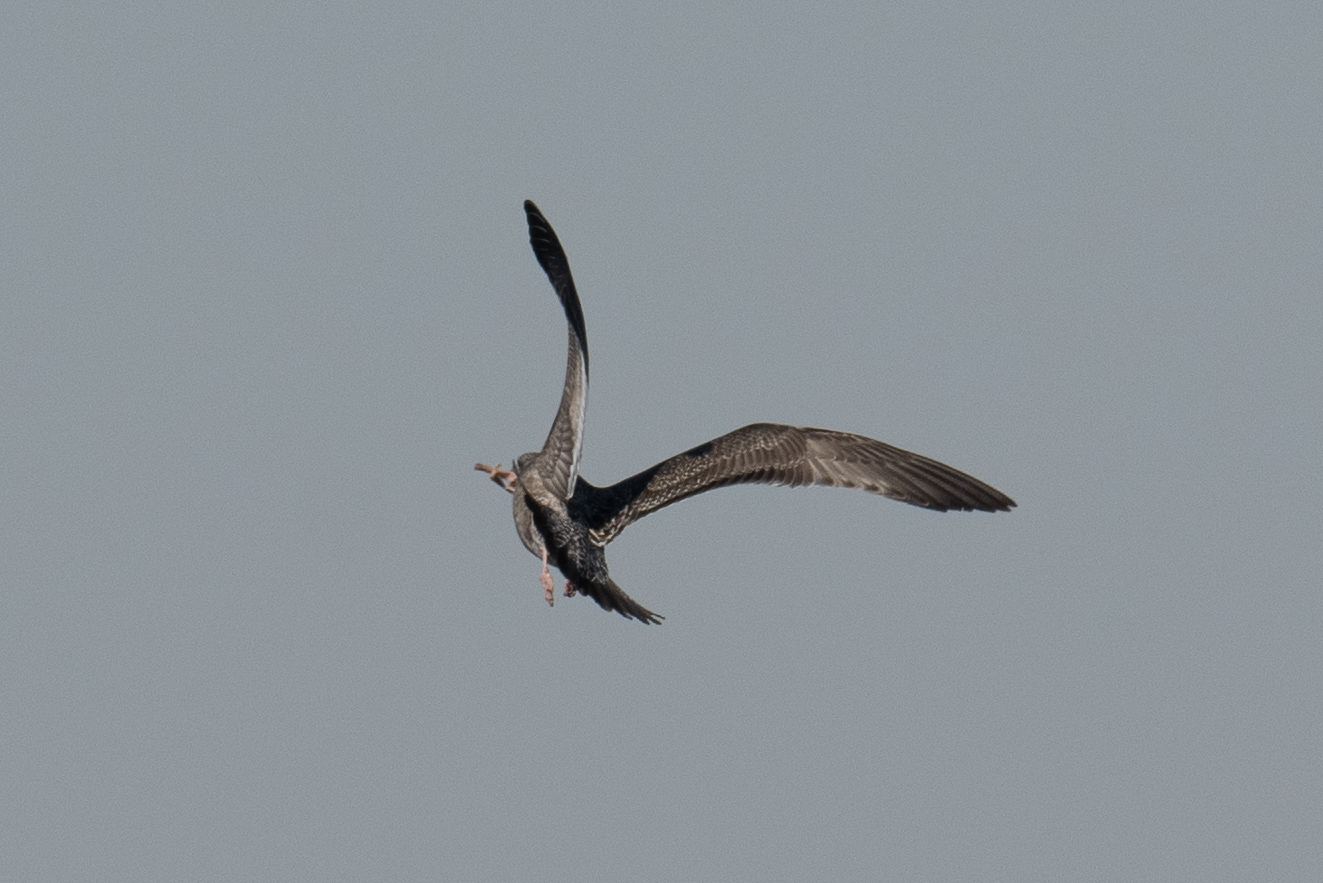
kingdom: Animalia
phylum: Chordata
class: Aves
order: Charadriiformes
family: Laridae
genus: Larus
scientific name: Larus argentatus
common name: Herring gull
